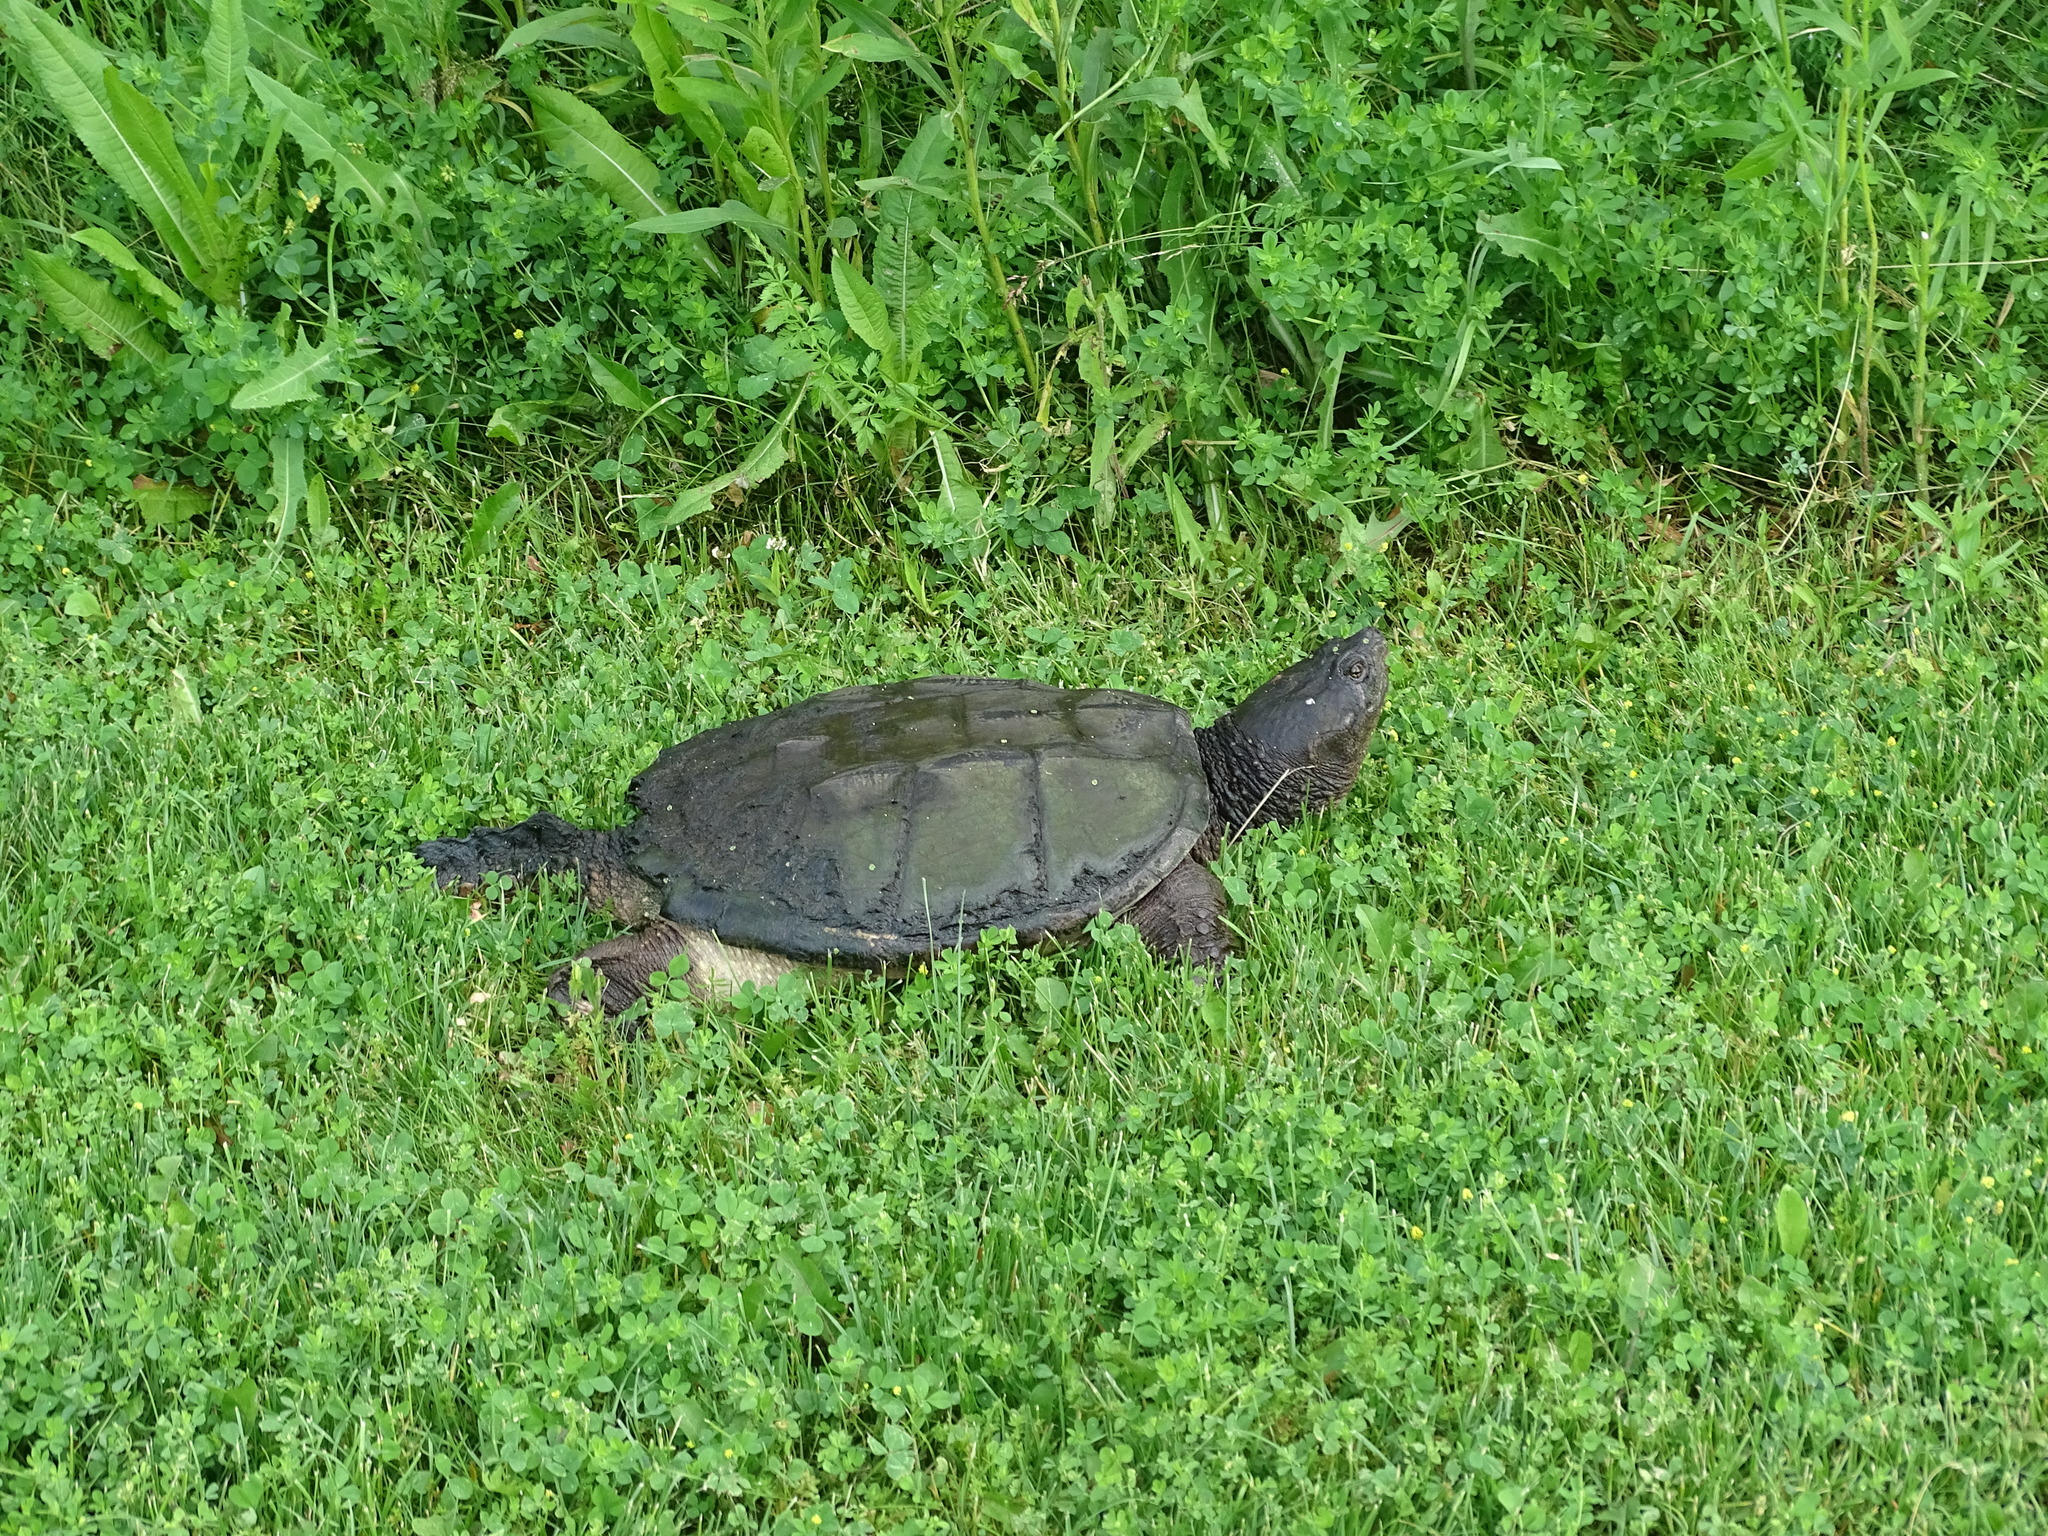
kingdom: Animalia
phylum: Chordata
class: Testudines
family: Chelydridae
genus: Chelydra
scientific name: Chelydra serpentina
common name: Common snapping turtle
